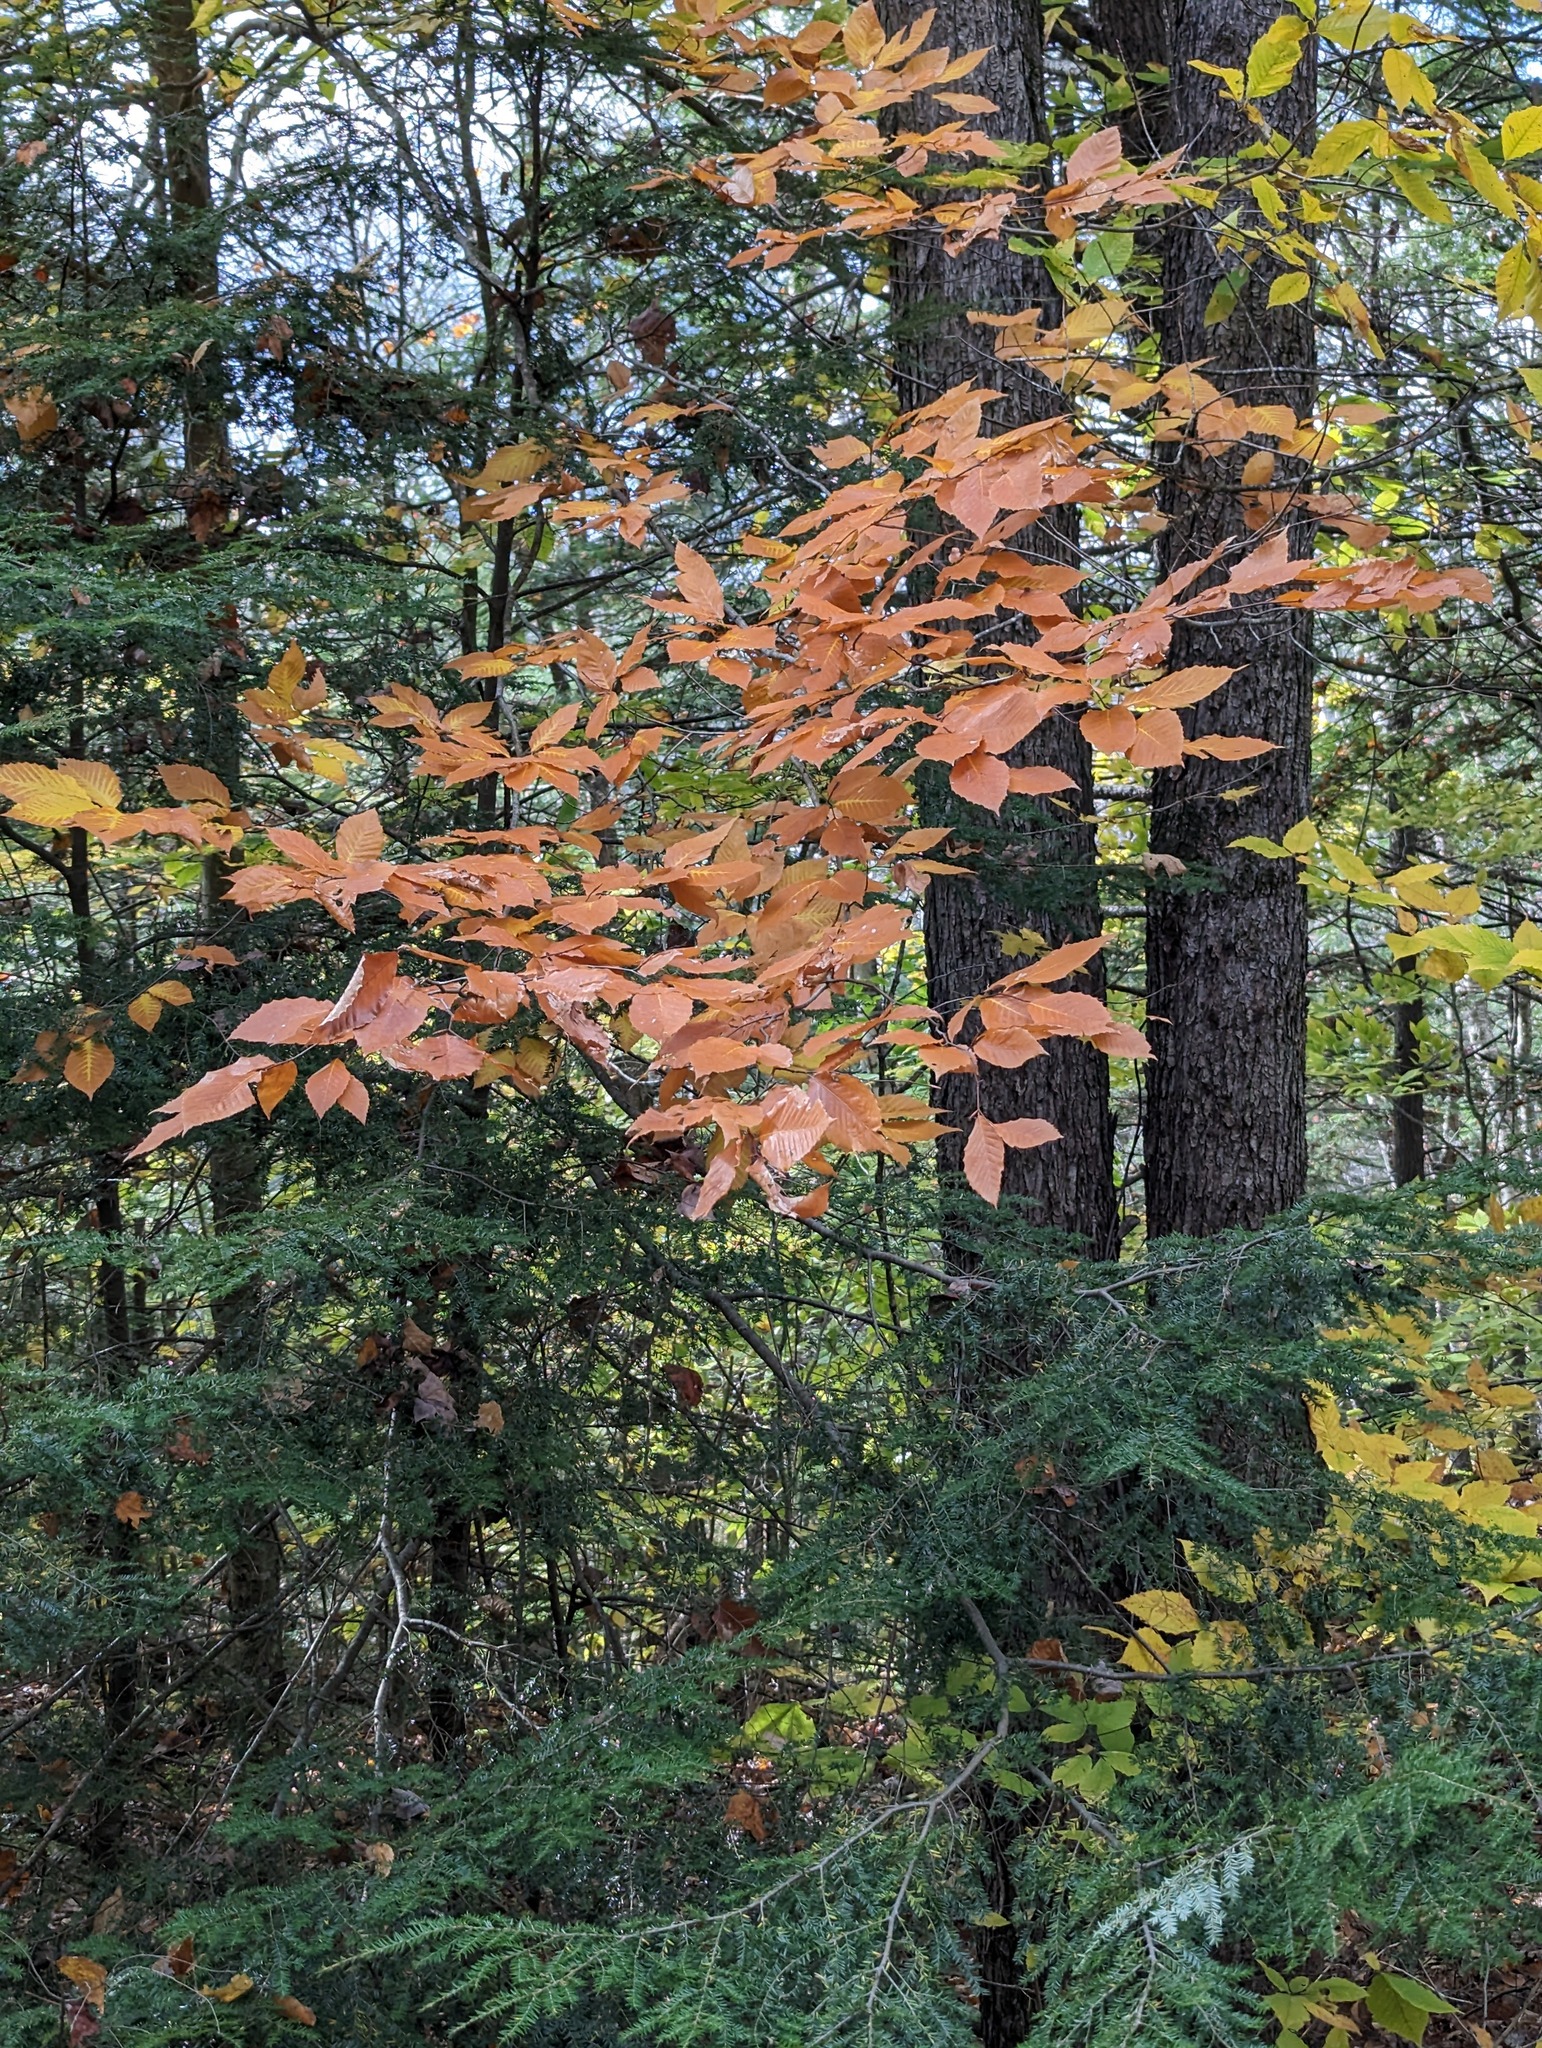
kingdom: Plantae
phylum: Tracheophyta
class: Magnoliopsida
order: Fagales
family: Fagaceae
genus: Fagus
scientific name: Fagus grandifolia
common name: American beech
